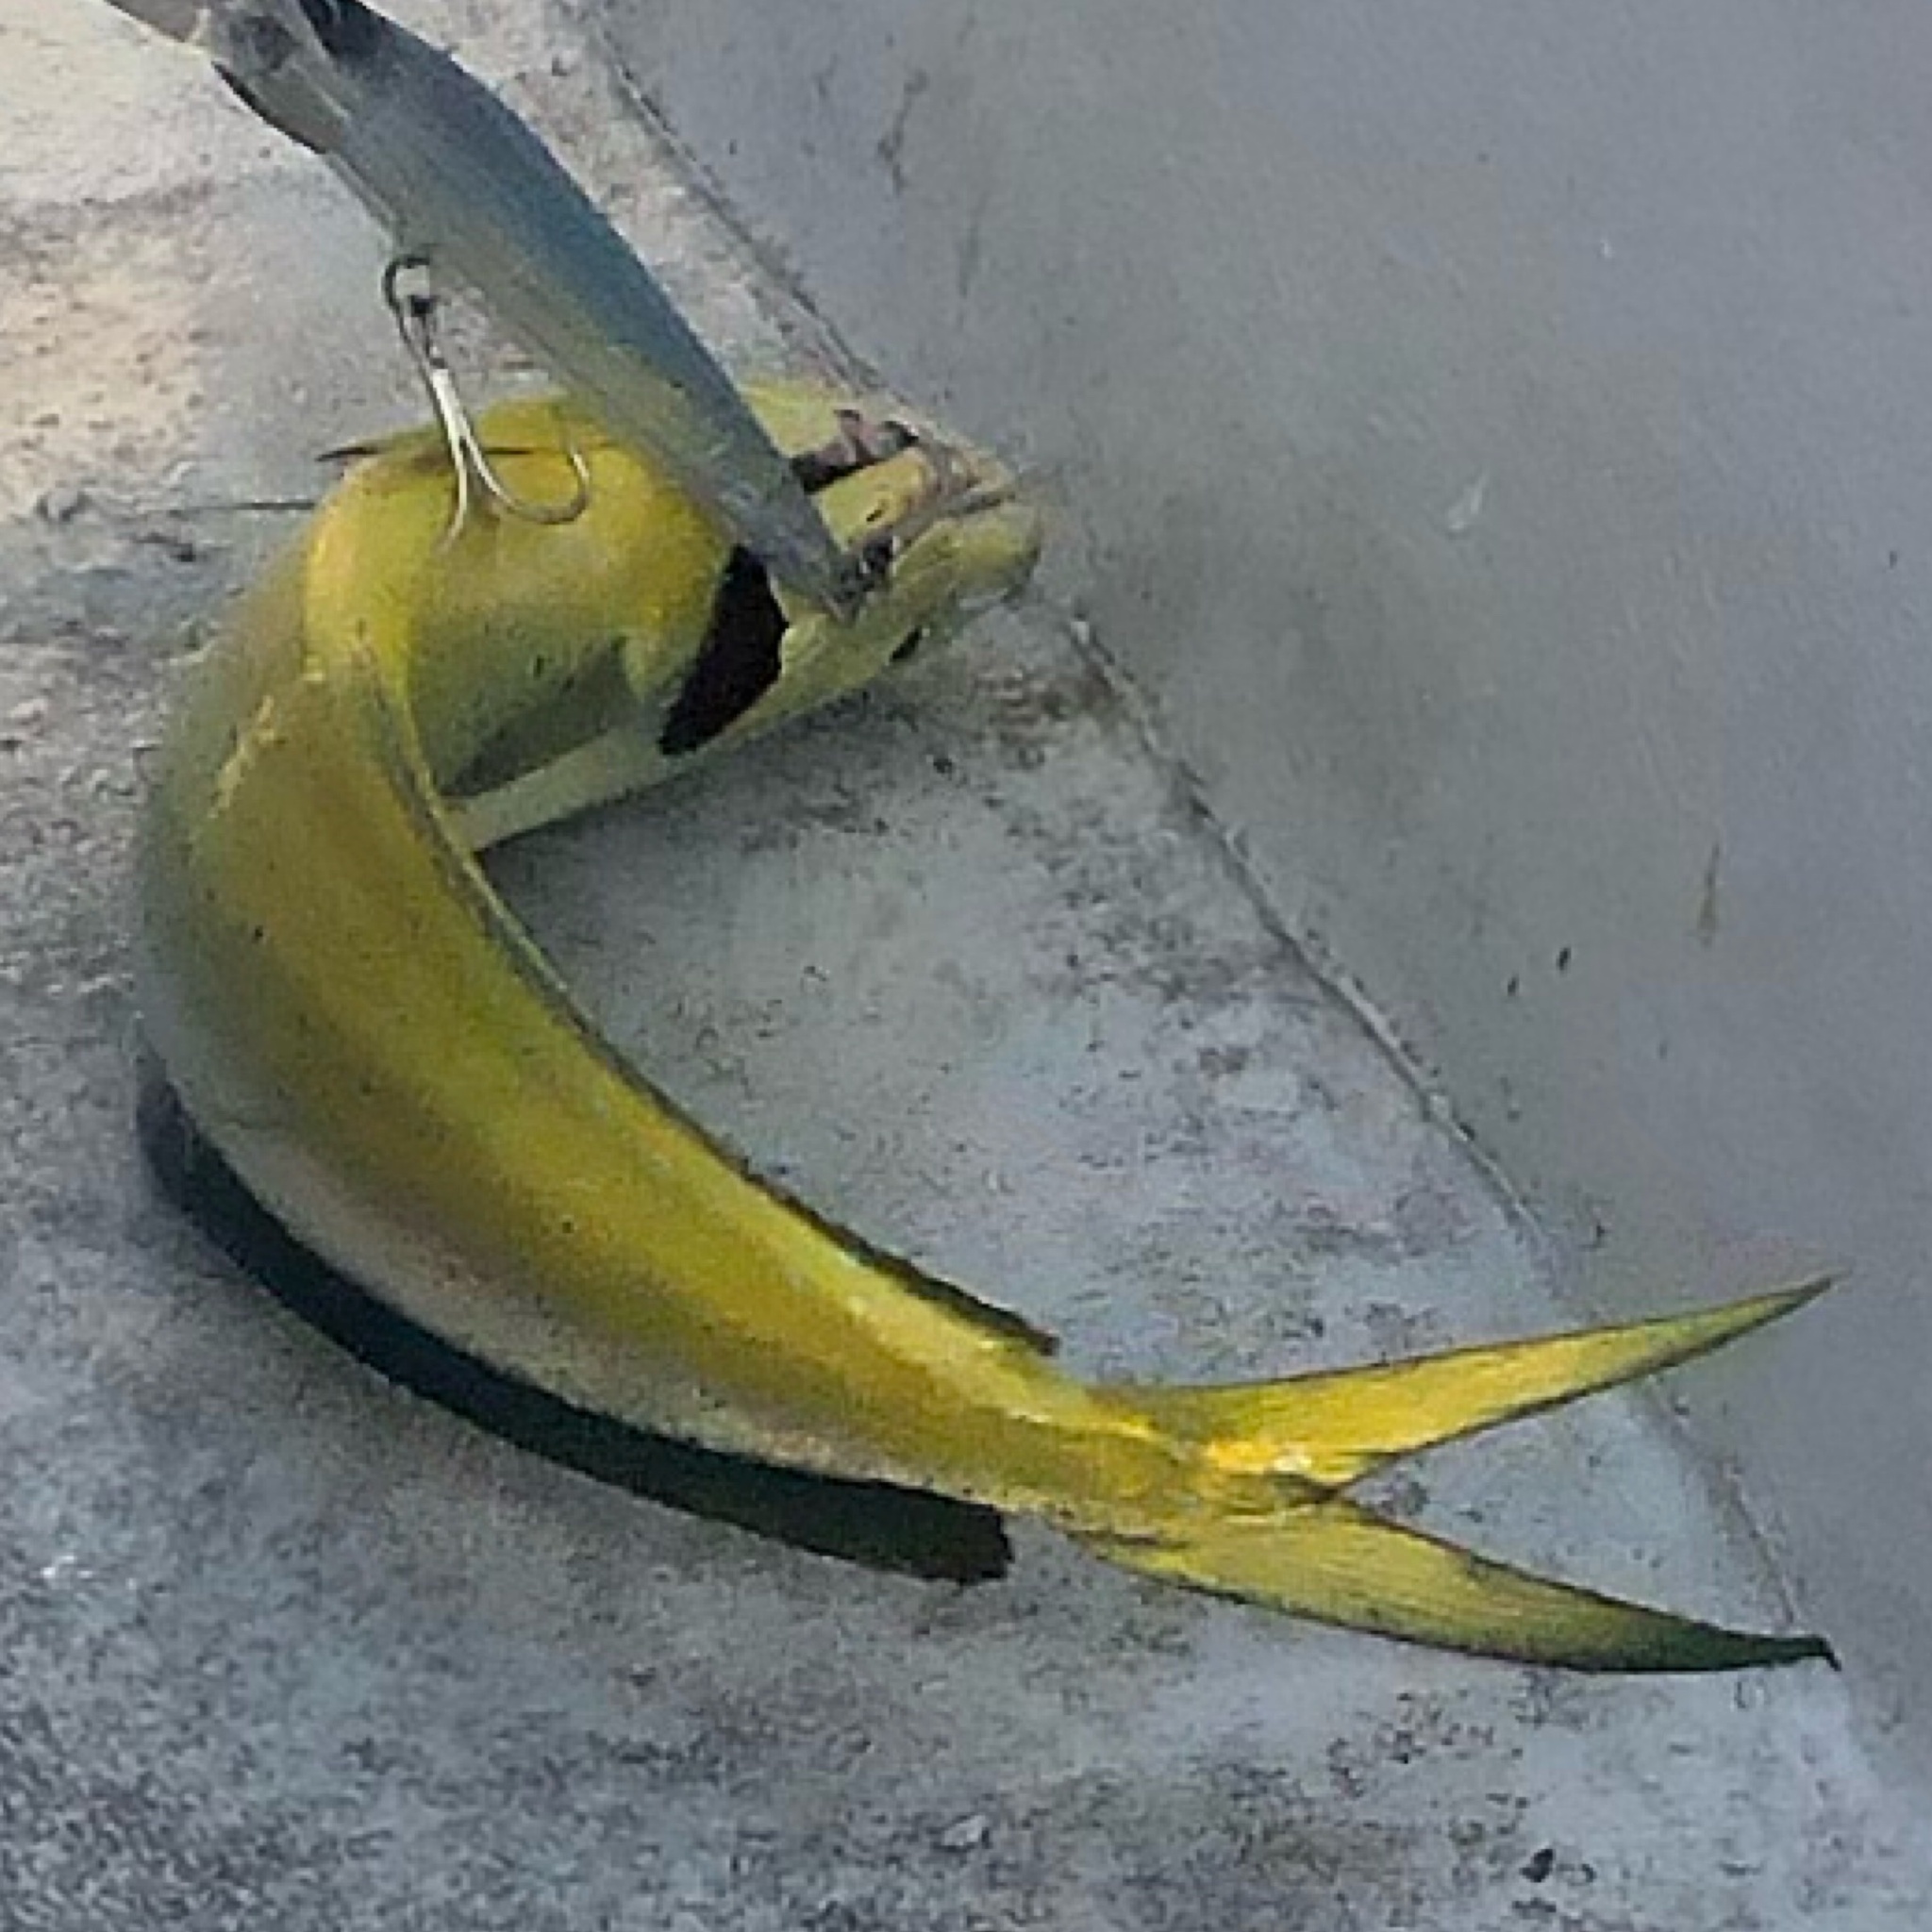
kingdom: Animalia
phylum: Chordata
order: Perciformes
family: Coryphaenidae
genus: Coryphaena
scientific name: Coryphaena hippurus
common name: Dolphin
